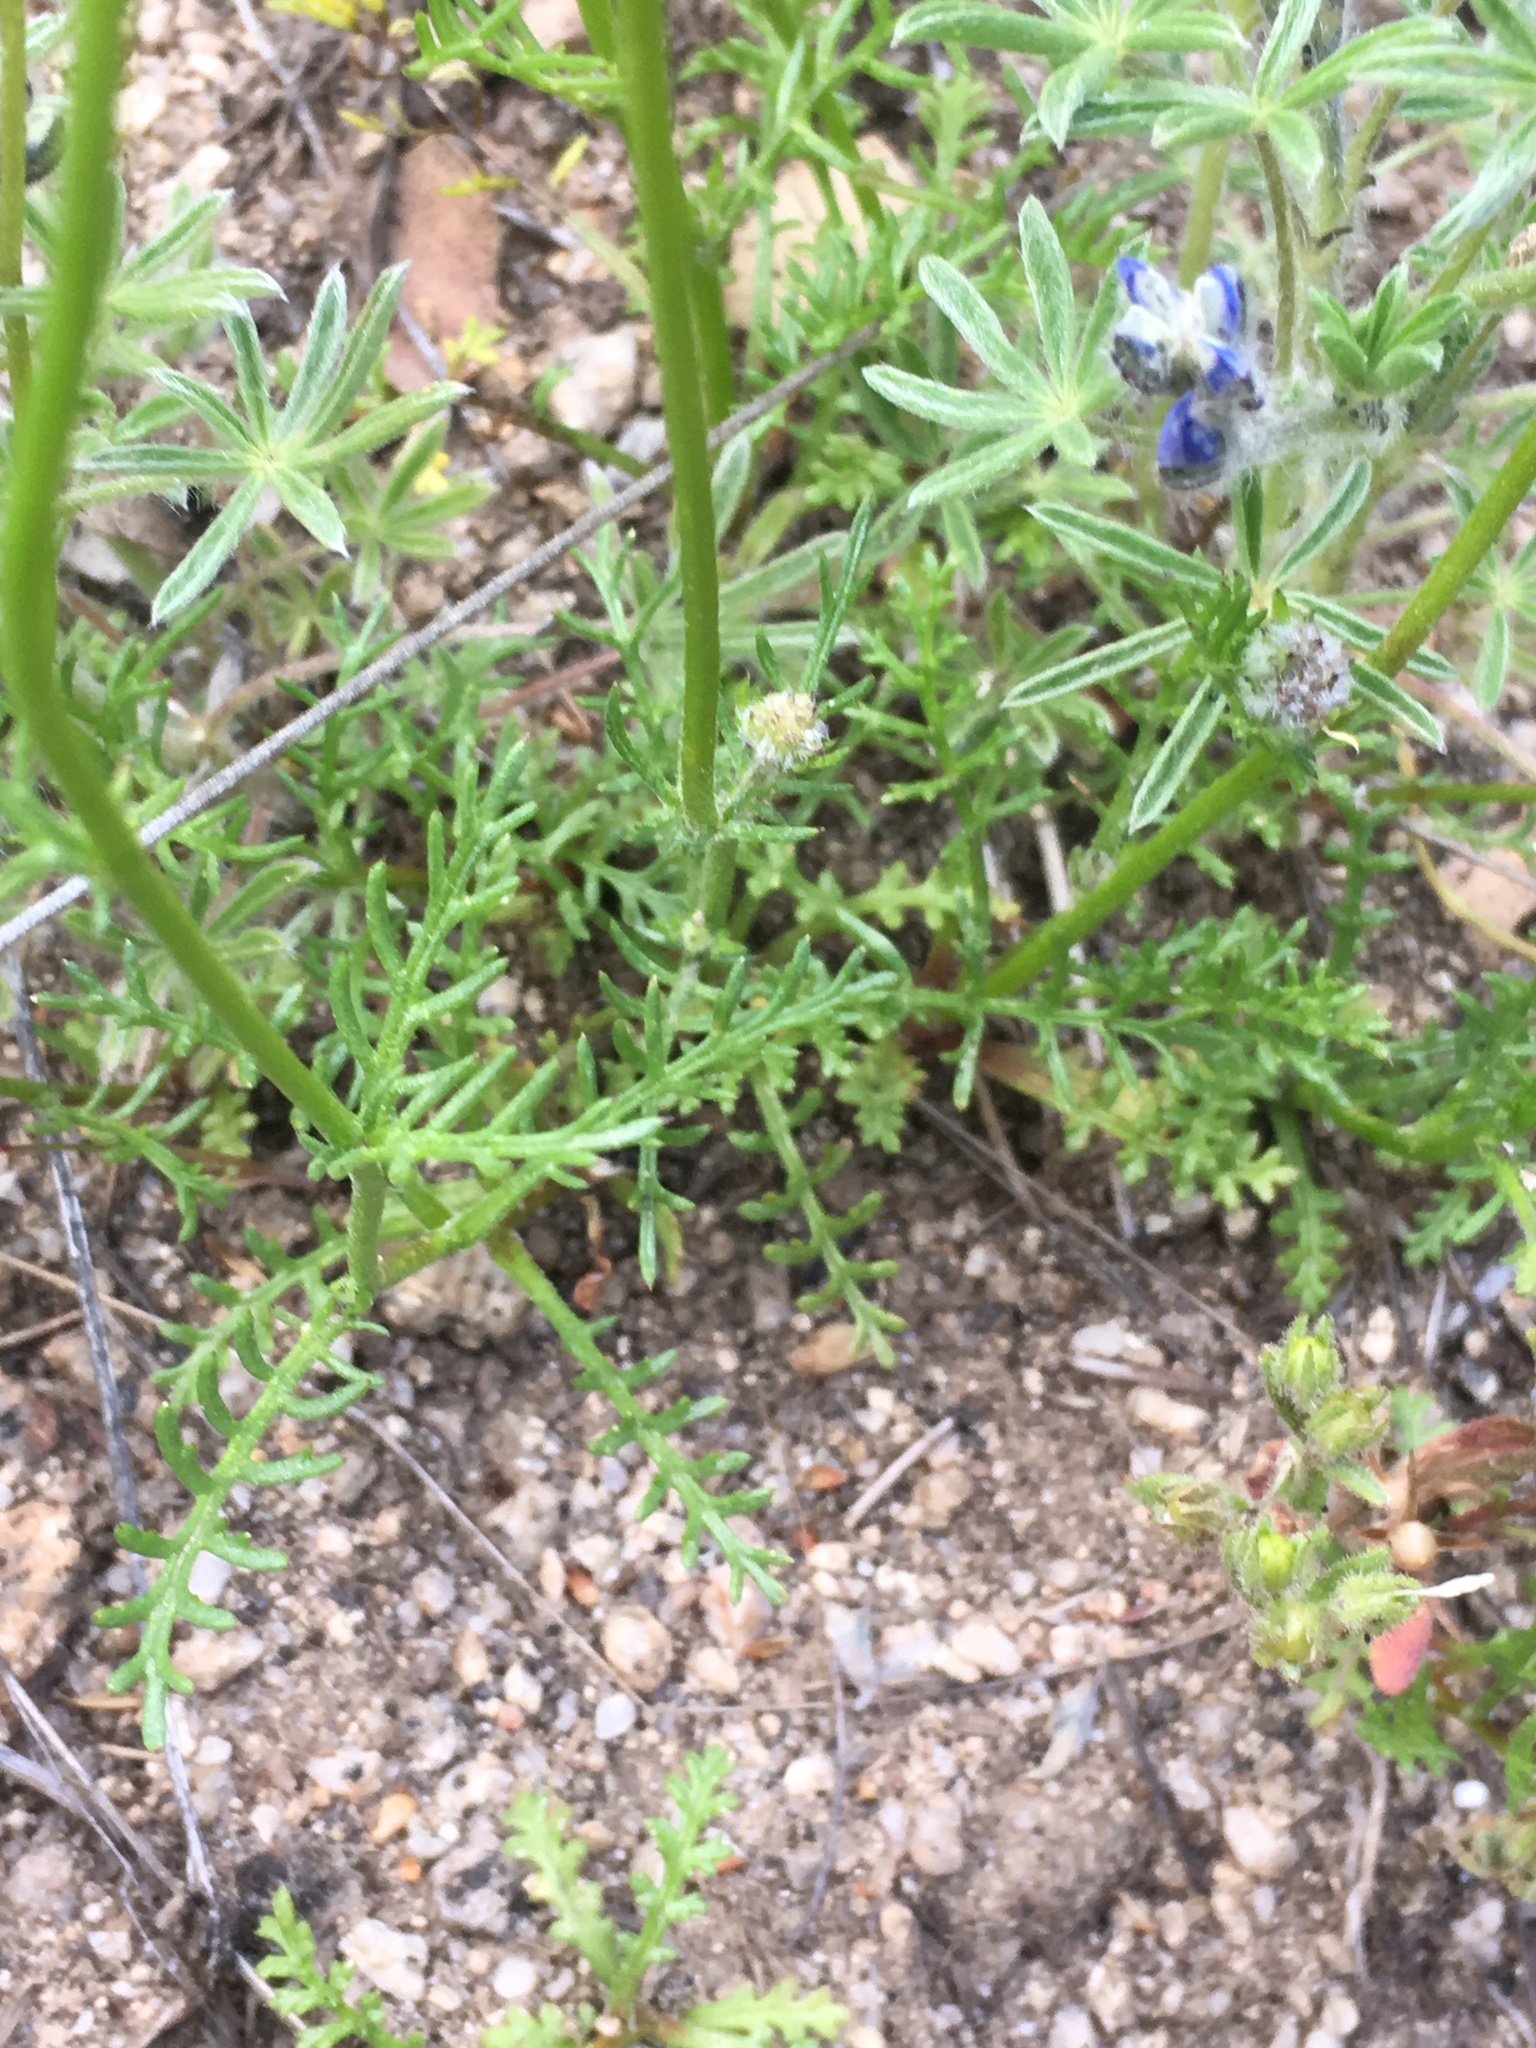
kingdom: Plantae
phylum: Tracheophyta
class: Magnoliopsida
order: Ericales
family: Polemoniaceae
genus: Gilia
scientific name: Gilia capitata
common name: Bluehead gilia
